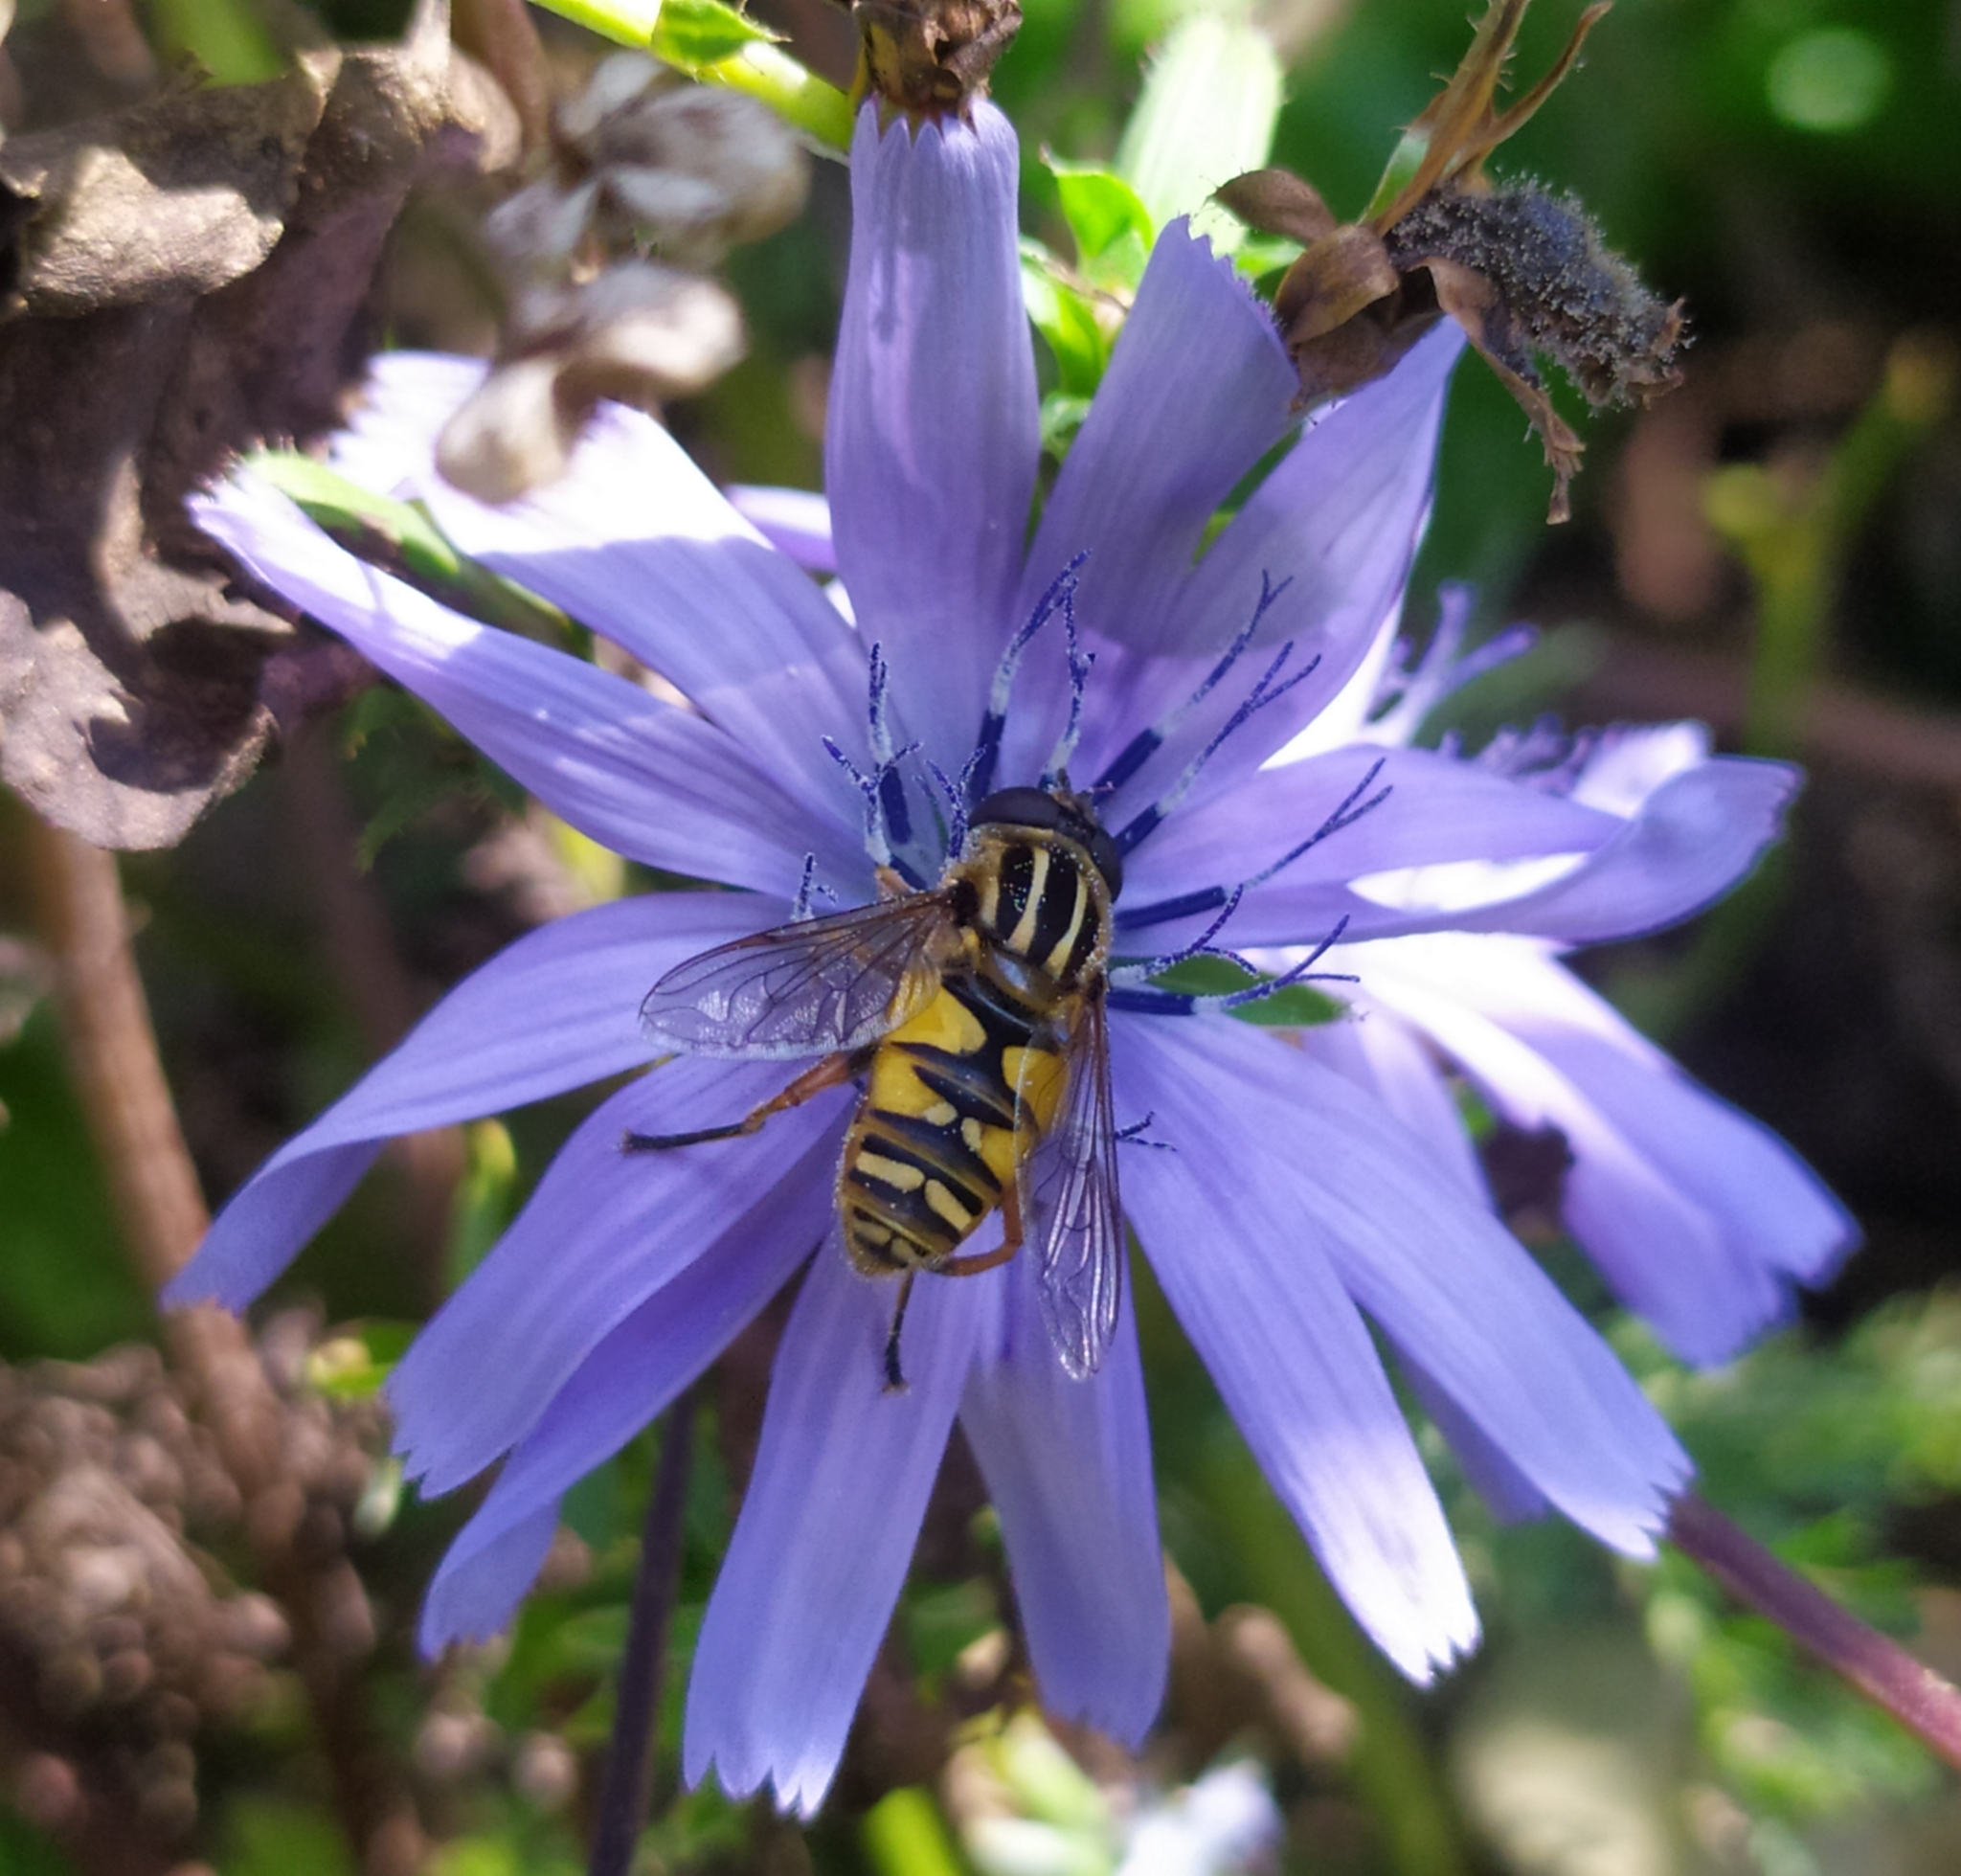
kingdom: Animalia
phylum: Arthropoda
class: Insecta
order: Diptera
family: Syrphidae
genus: Helophilus
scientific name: Helophilus pendulus
